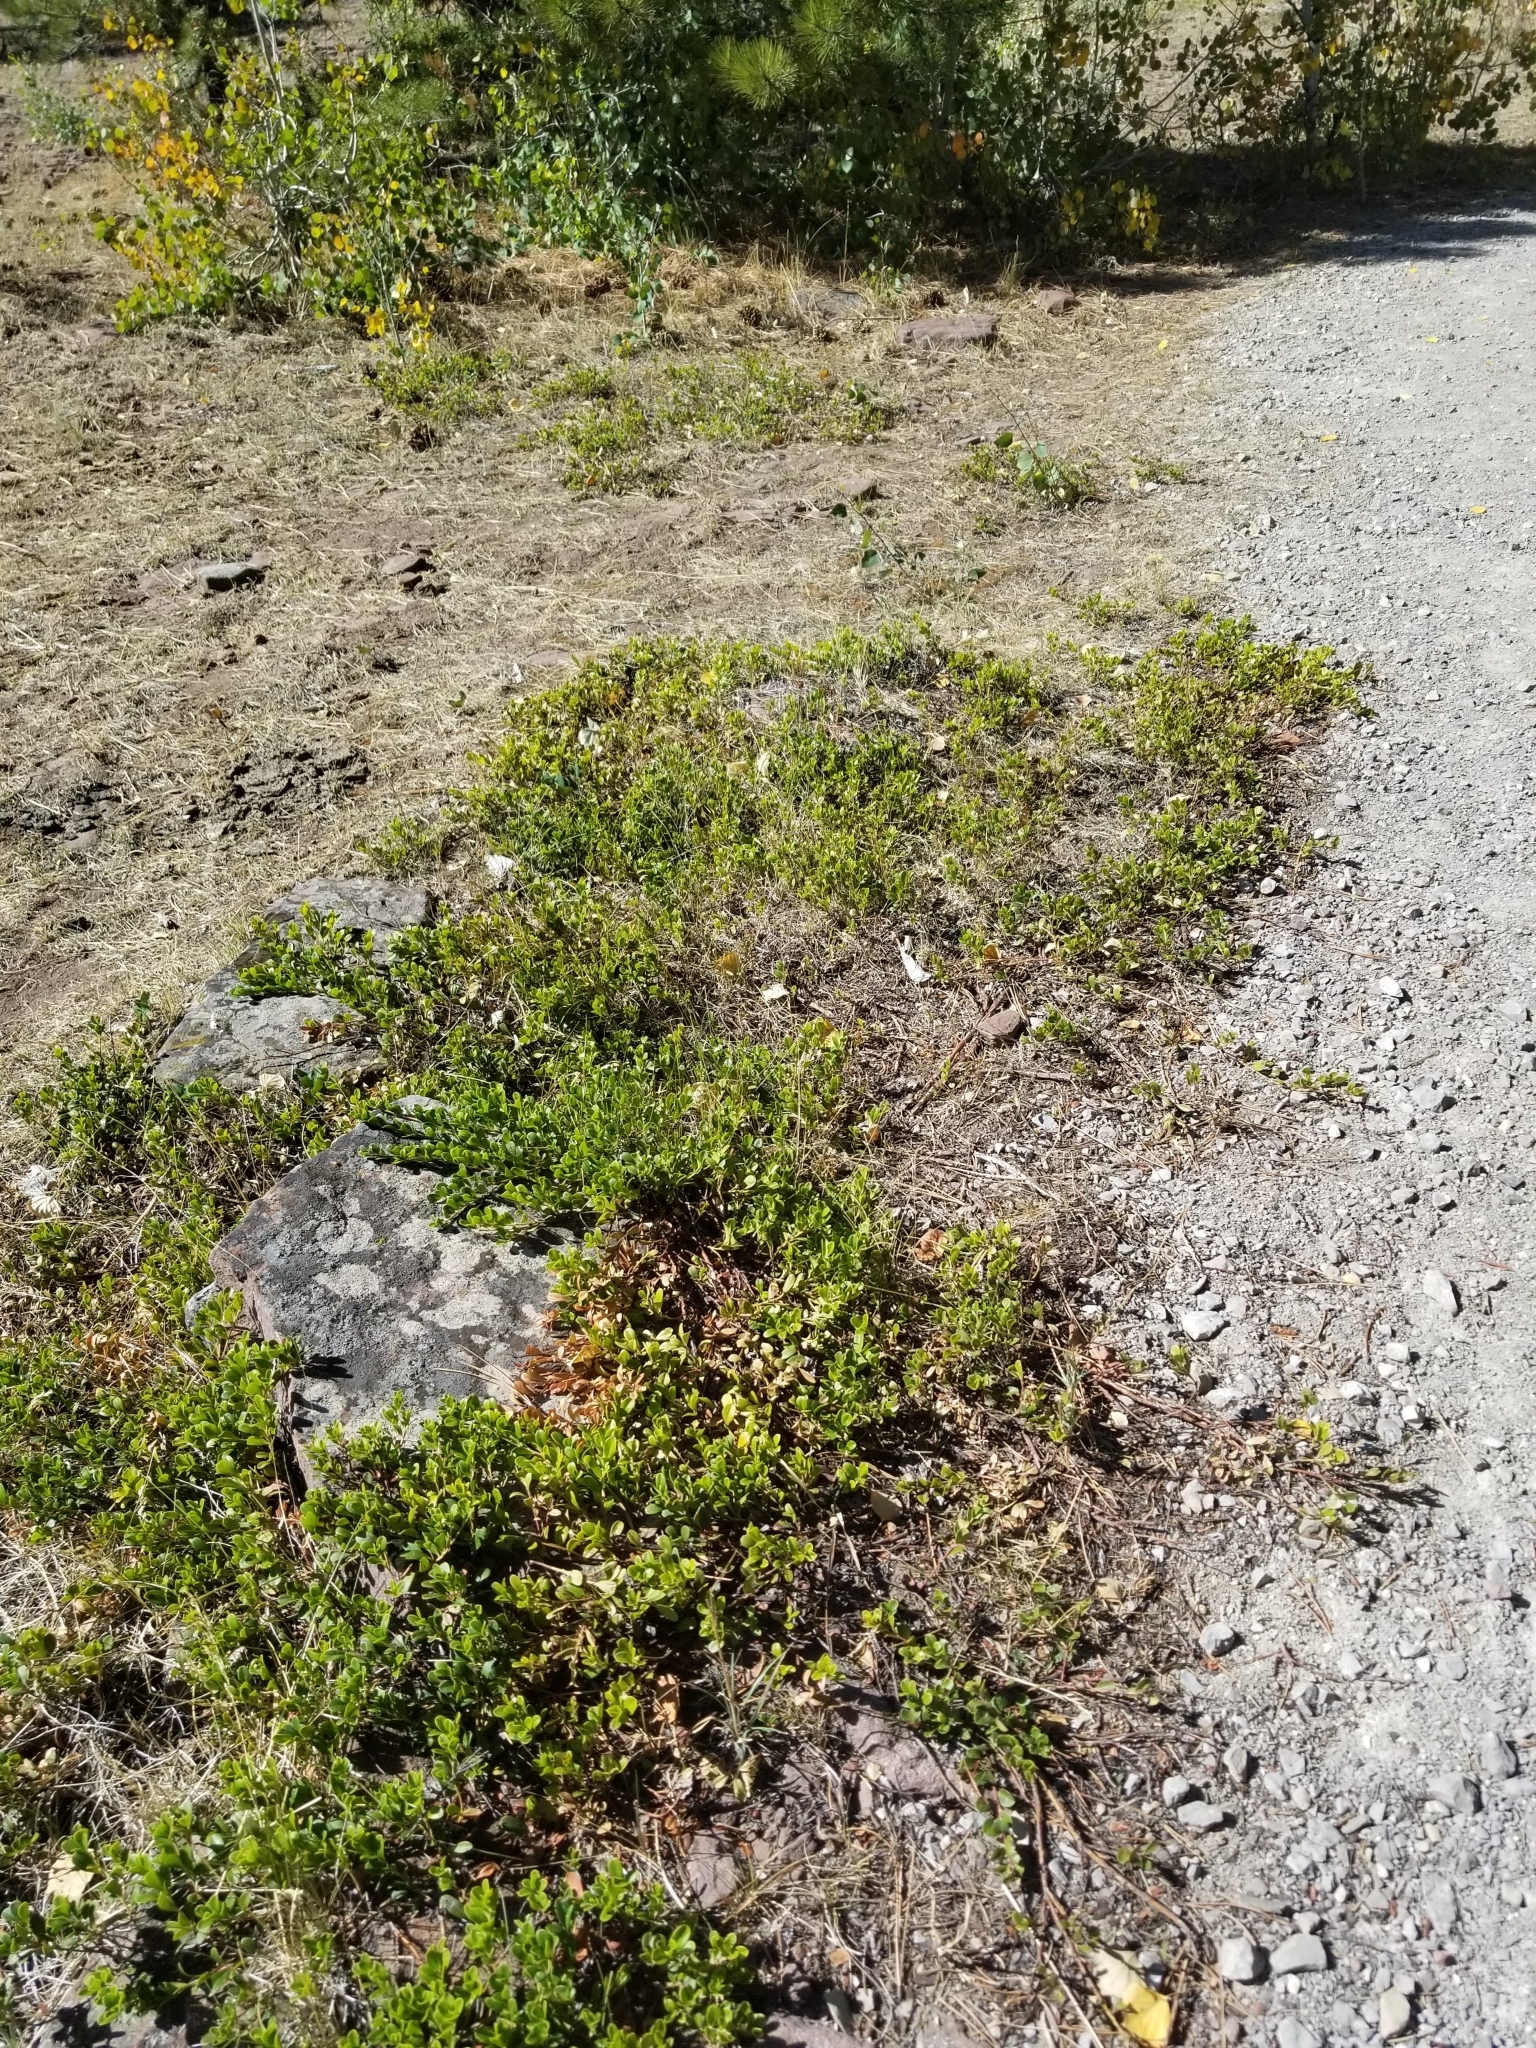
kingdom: Plantae
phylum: Tracheophyta
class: Magnoliopsida
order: Ericales
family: Ericaceae
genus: Arctostaphylos
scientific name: Arctostaphylos uva-ursi
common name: Bearberry
